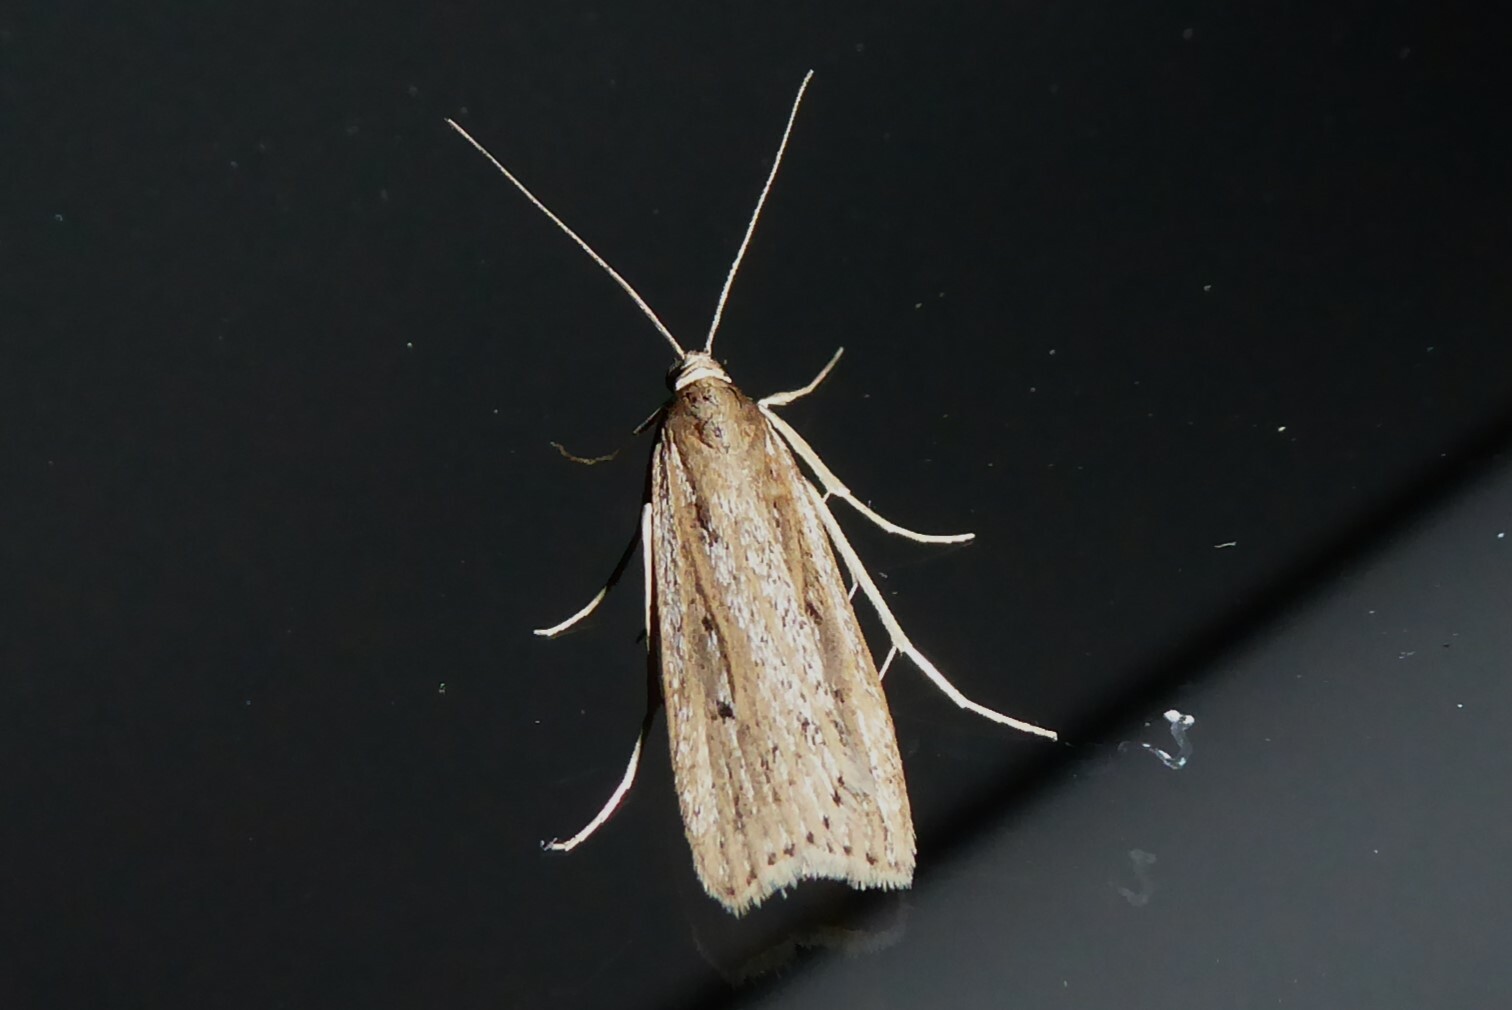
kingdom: Animalia
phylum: Arthropoda
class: Insecta
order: Lepidoptera
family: Crambidae
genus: Eudonia
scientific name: Eudonia sabulosella
